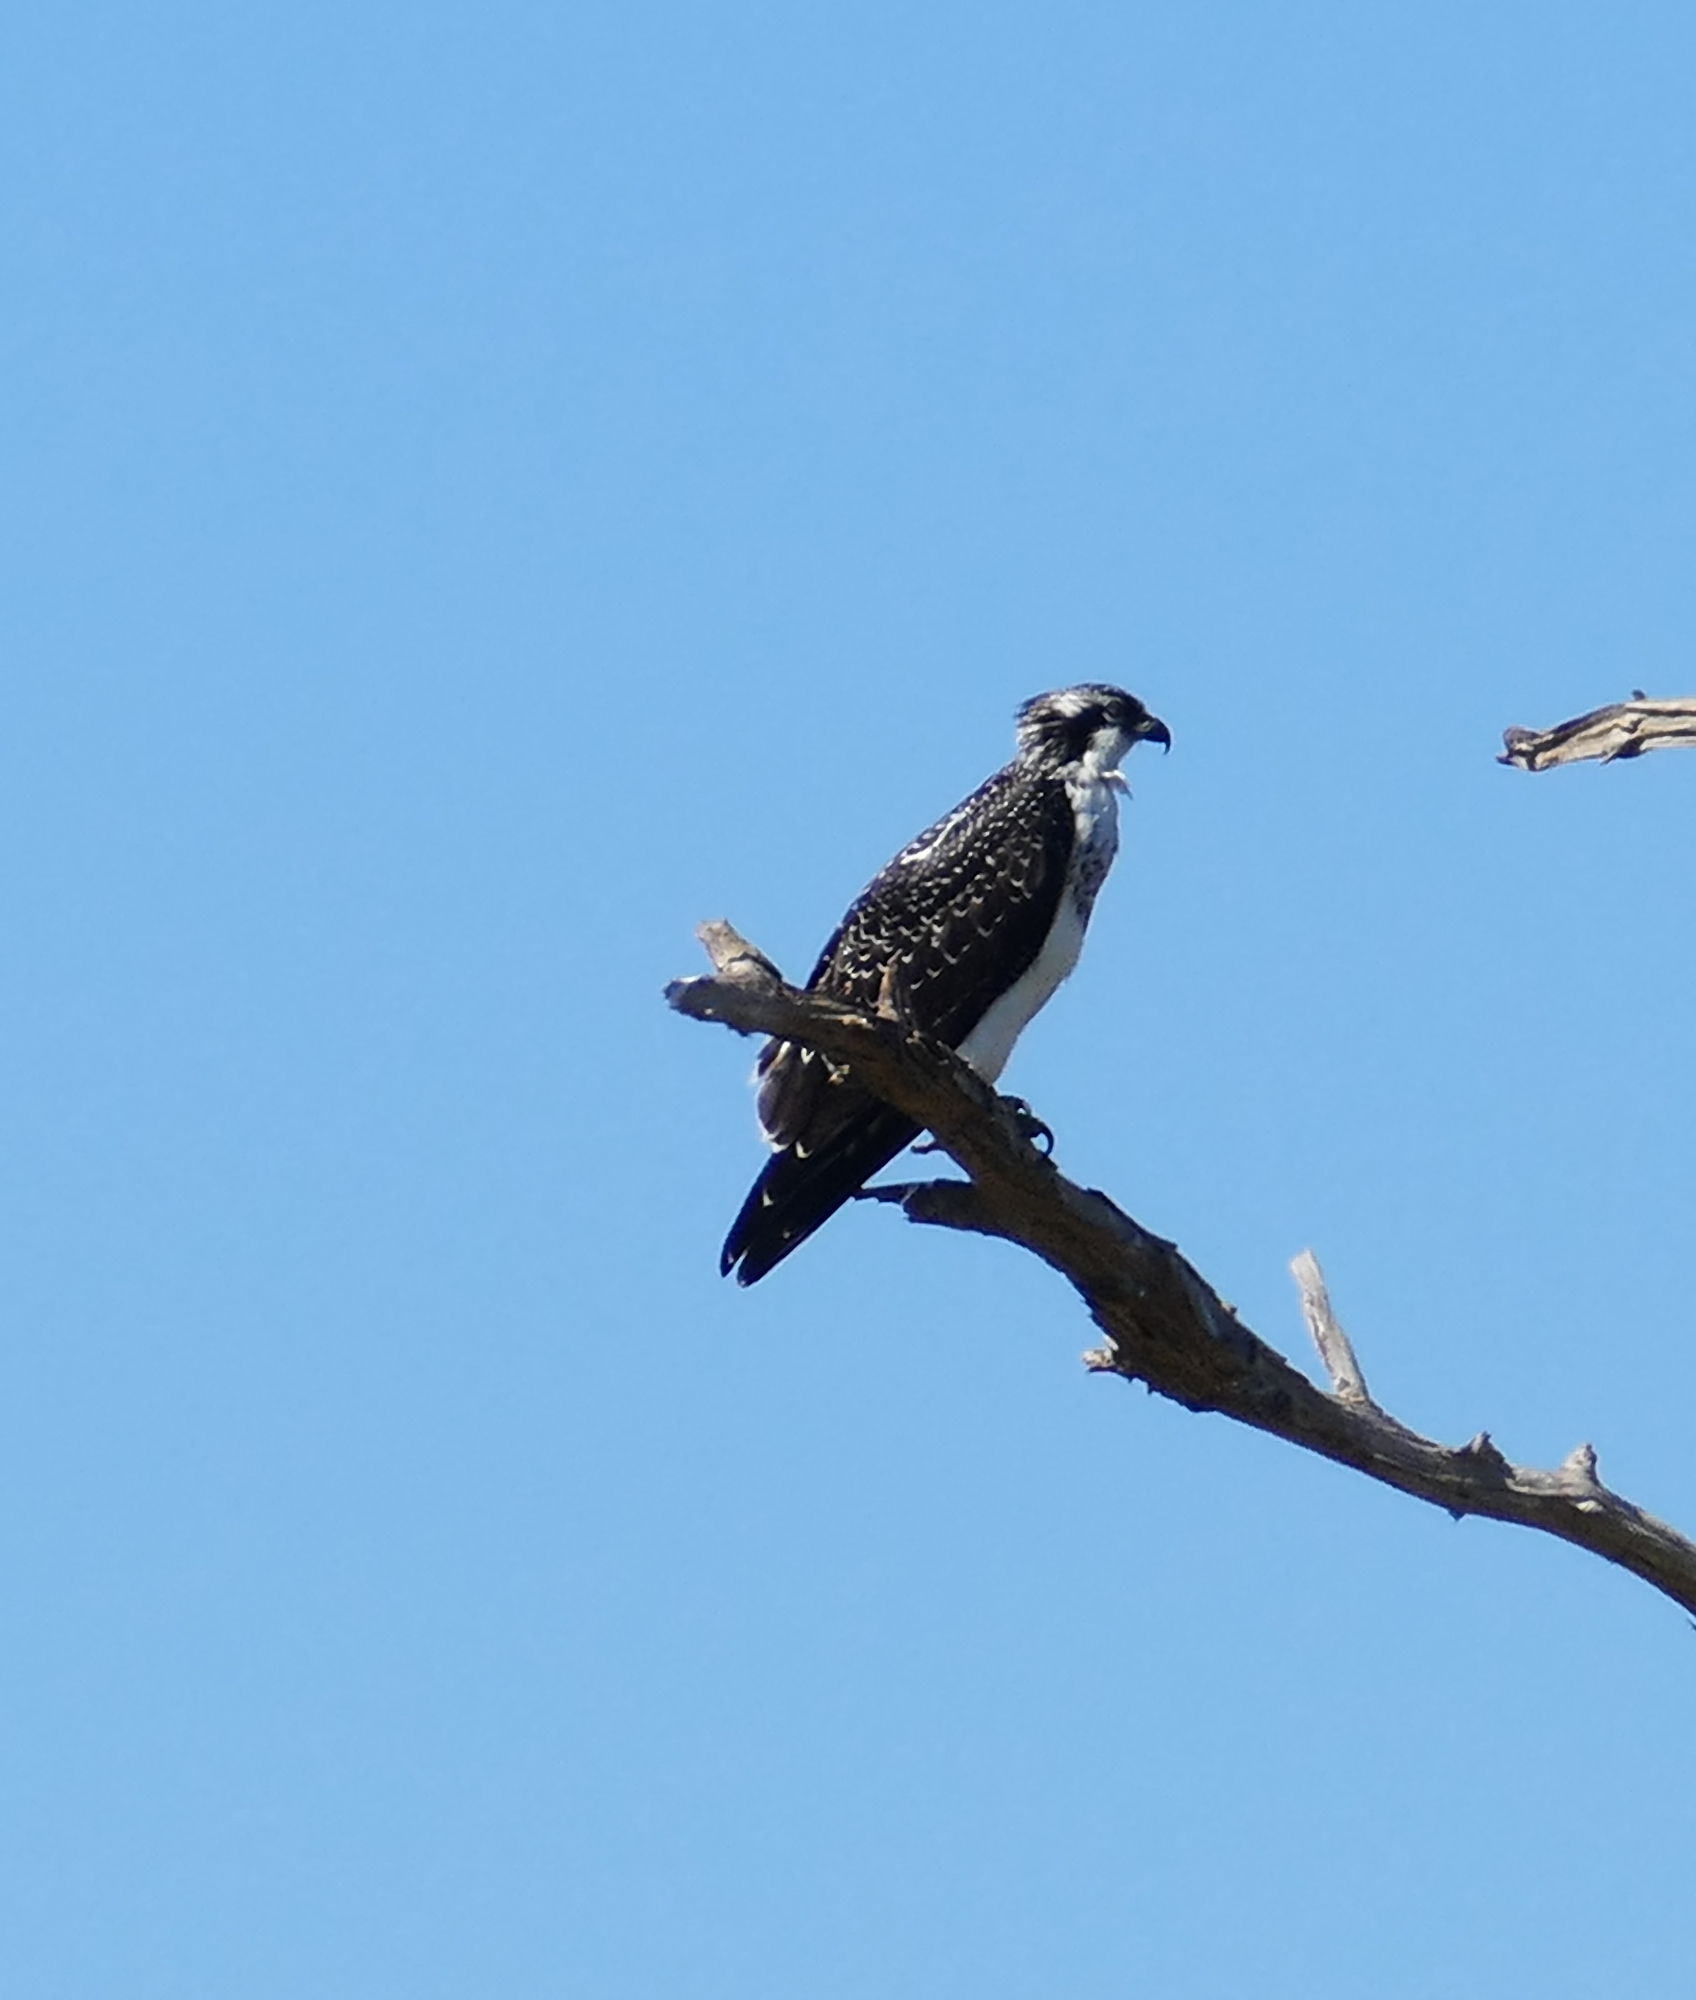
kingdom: Animalia
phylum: Chordata
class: Aves
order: Accipitriformes
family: Pandionidae
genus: Pandion
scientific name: Pandion haliaetus
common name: Osprey
